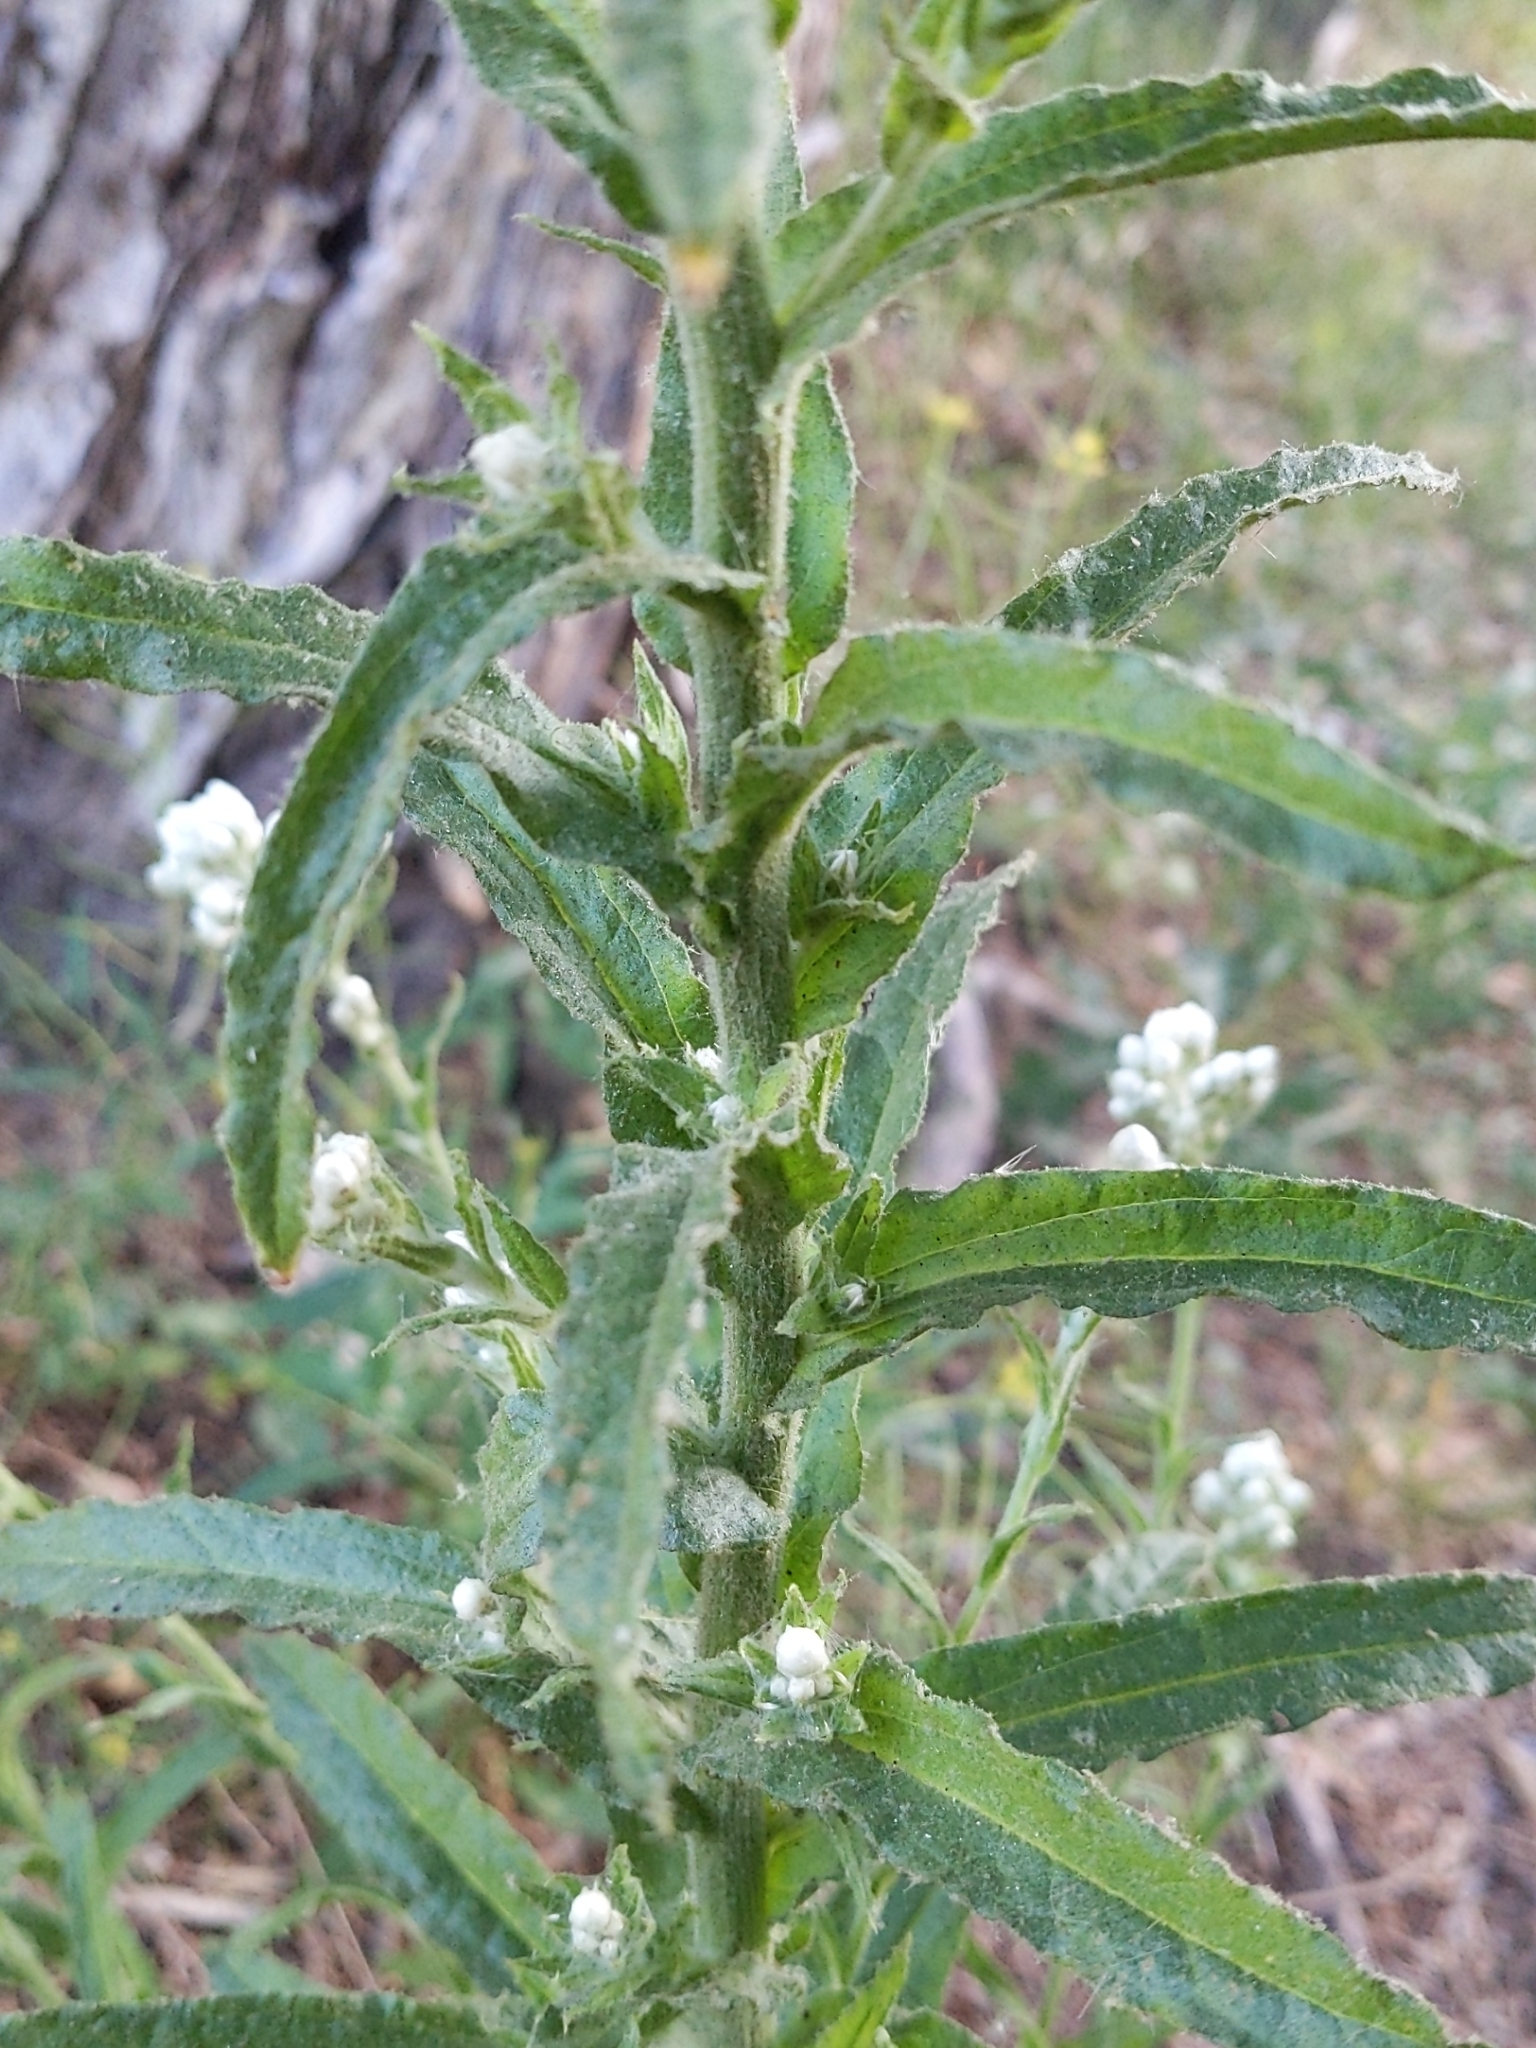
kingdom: Plantae
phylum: Tracheophyta
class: Magnoliopsida
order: Asterales
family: Asteraceae
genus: Pseudognaphalium
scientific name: Pseudognaphalium californicum
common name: California rabbit-tobacco
